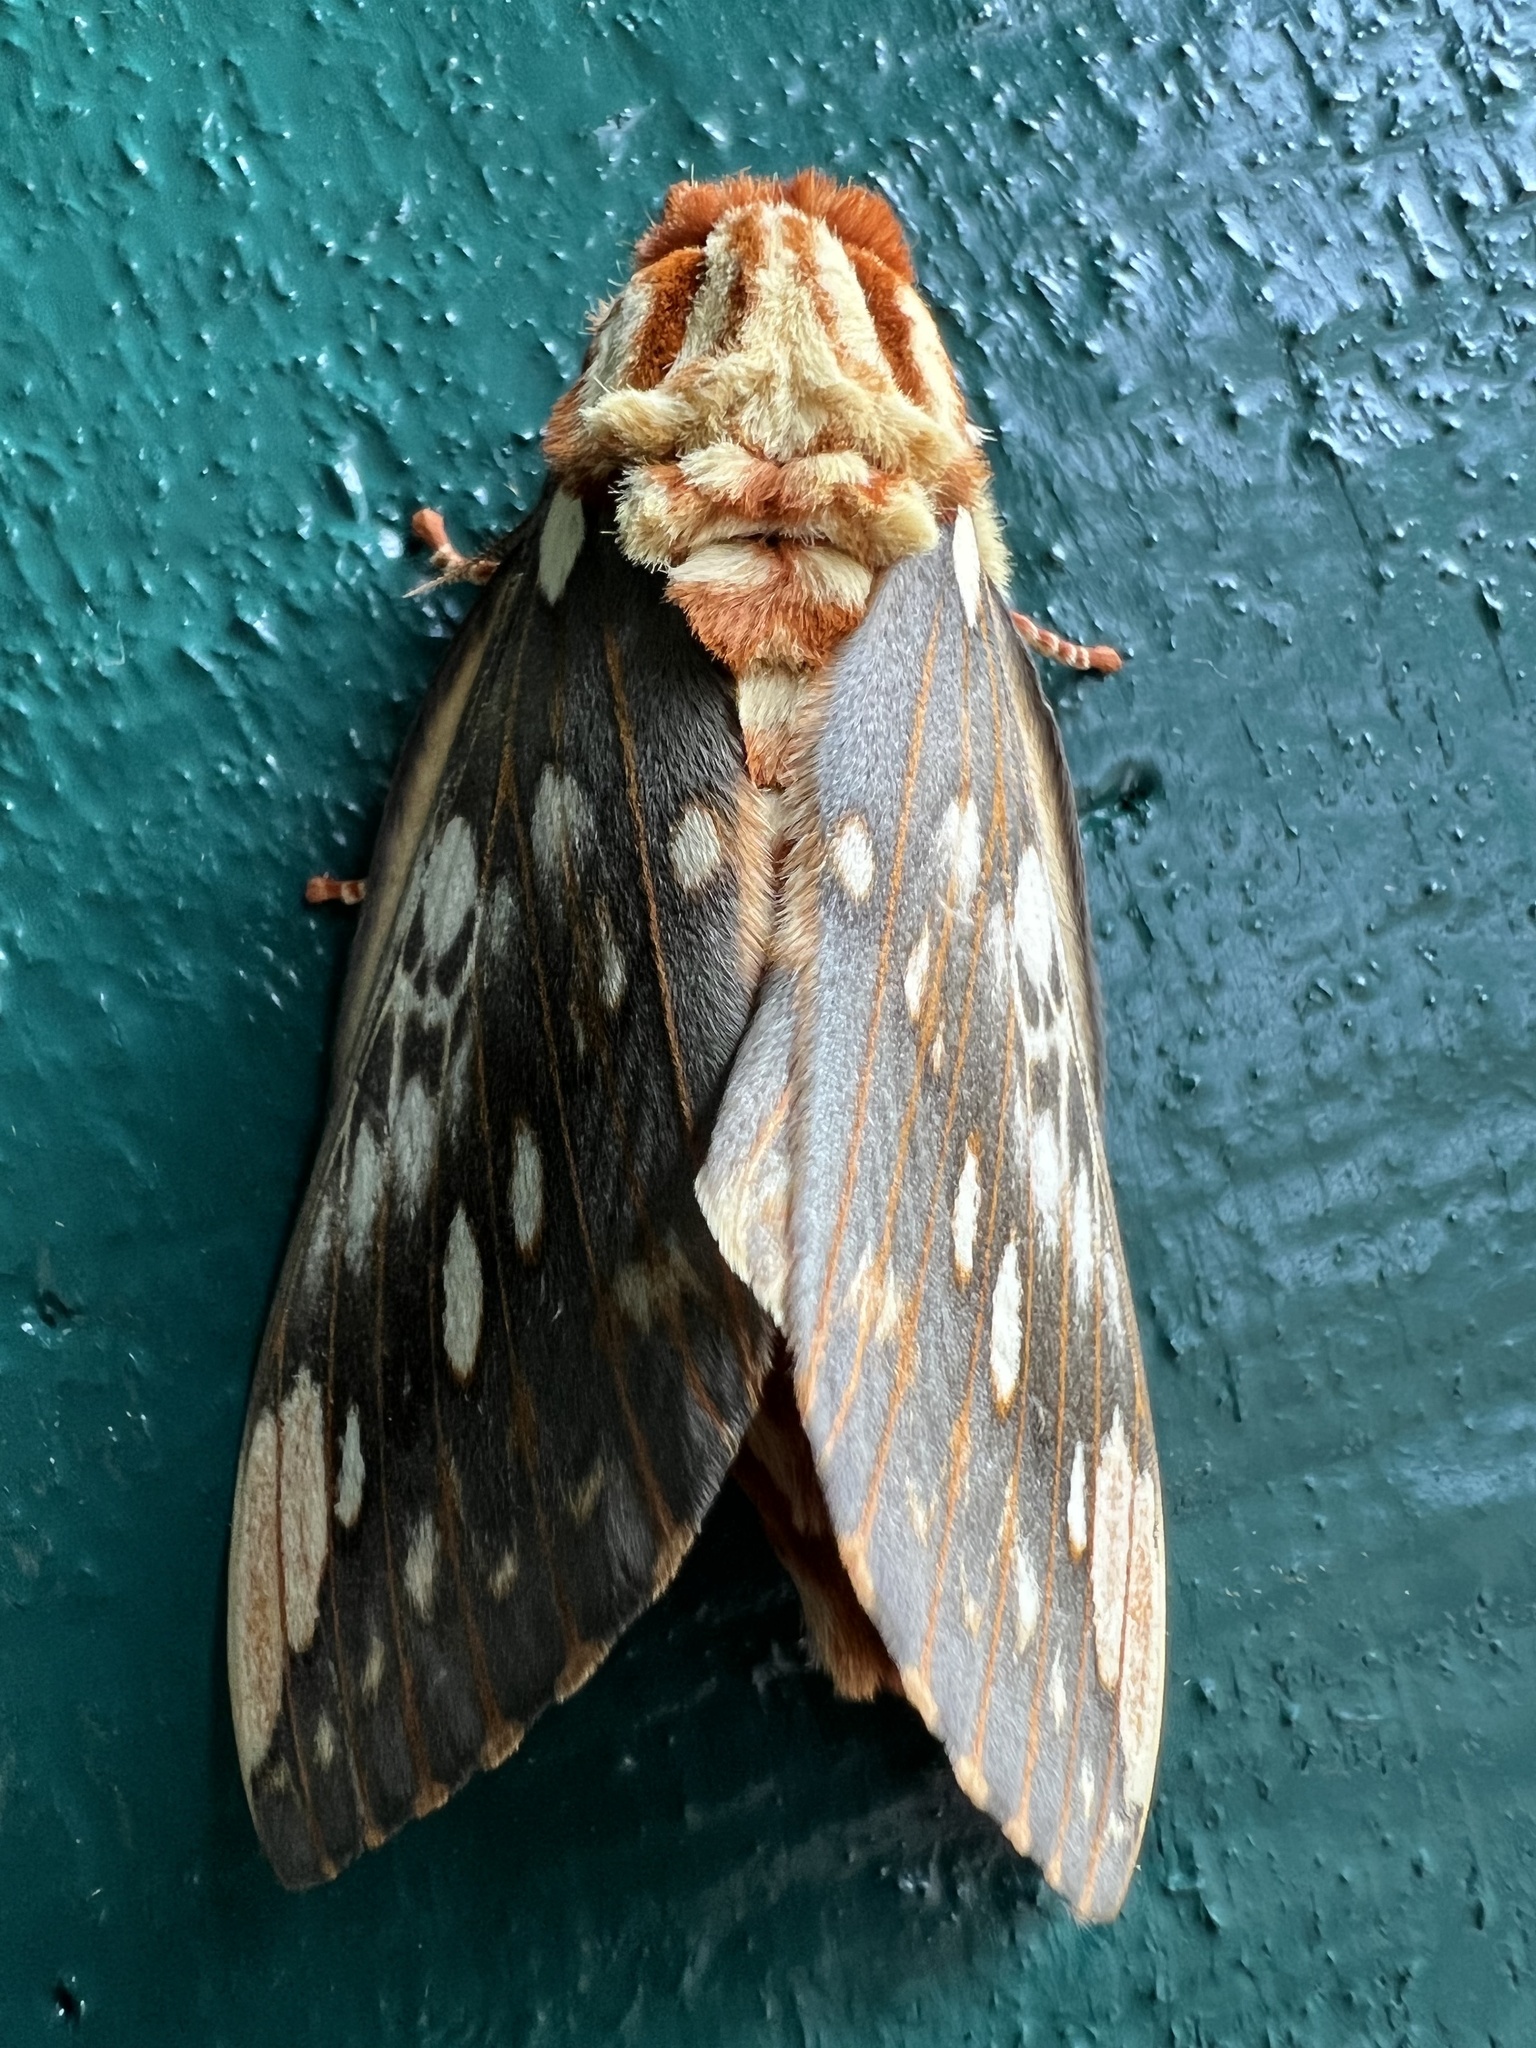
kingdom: Animalia
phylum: Arthropoda
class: Insecta
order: Lepidoptera
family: Saturniidae
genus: Citheronia
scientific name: Citheronia brissotii
